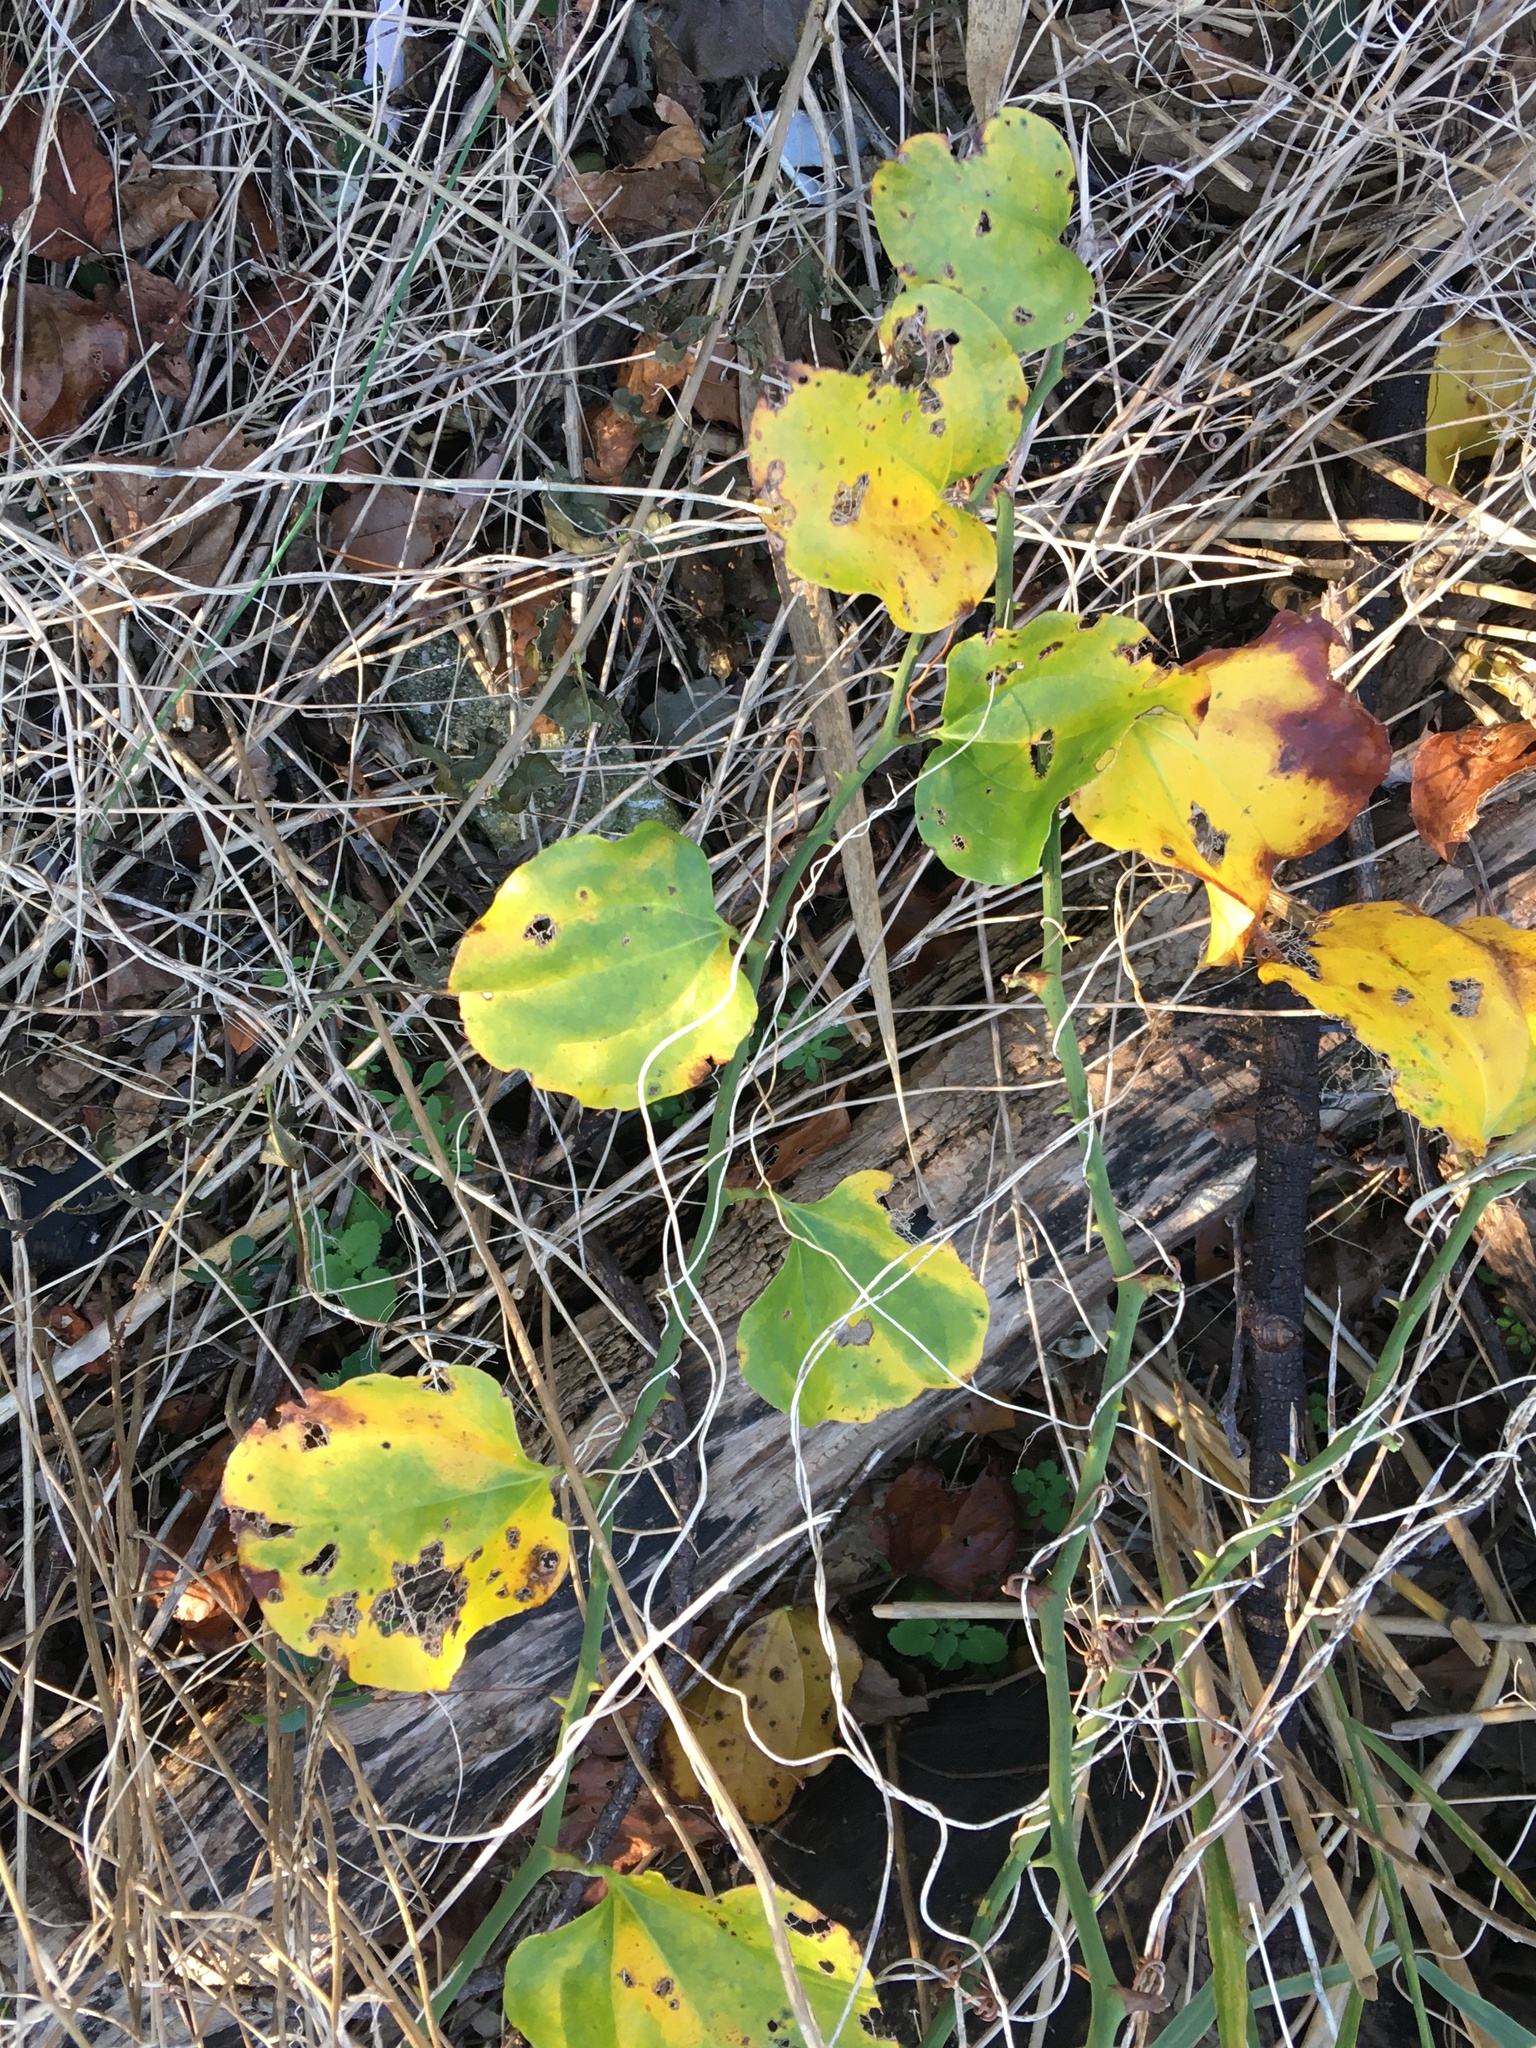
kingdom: Plantae
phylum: Tracheophyta
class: Liliopsida
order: Liliales
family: Smilacaceae
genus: Smilax
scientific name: Smilax rotundifolia
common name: Bullbriar
